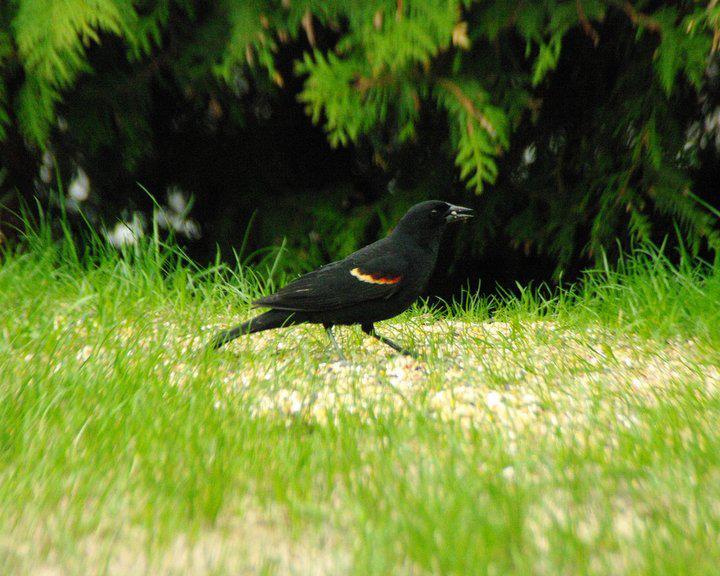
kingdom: Animalia
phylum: Chordata
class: Aves
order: Passeriformes
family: Icteridae
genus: Agelaius
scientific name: Agelaius phoeniceus
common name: Red-winged blackbird
